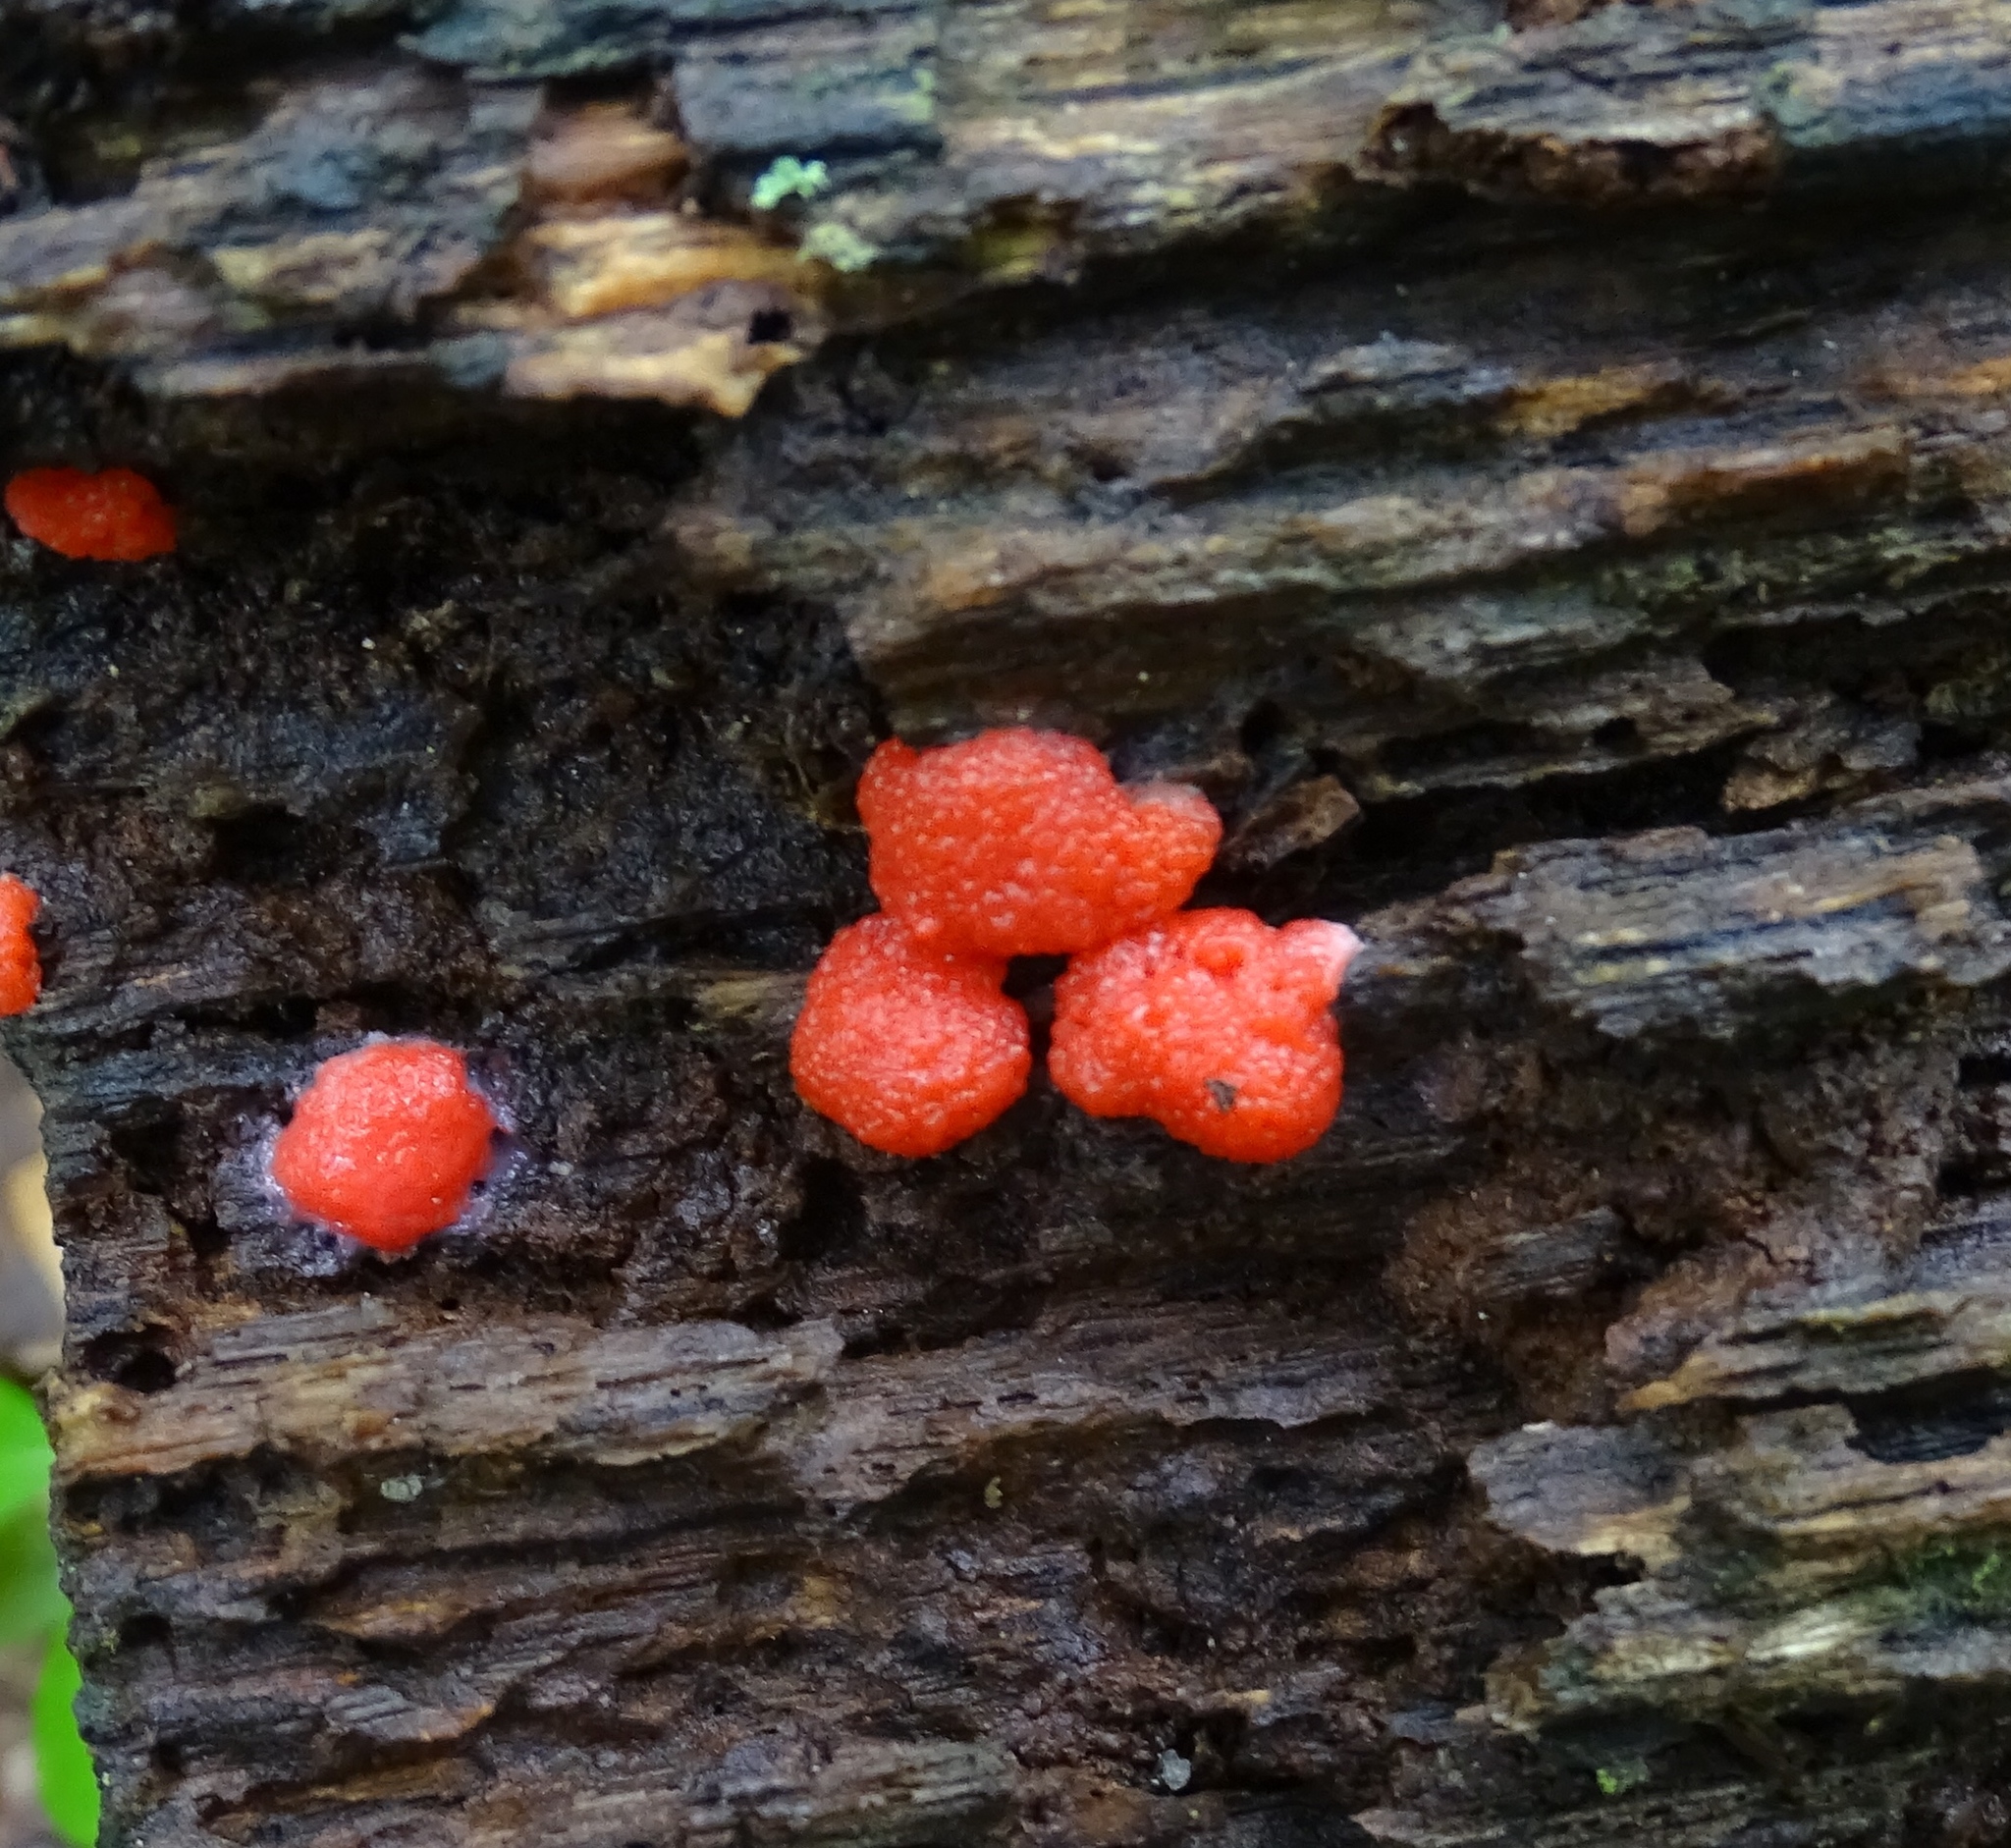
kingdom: Protozoa
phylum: Mycetozoa
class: Myxomycetes
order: Cribrariales
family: Tubiferaceae
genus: Tubifera
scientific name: Tubifera ferruginosa
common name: Red raspberry slime mold
